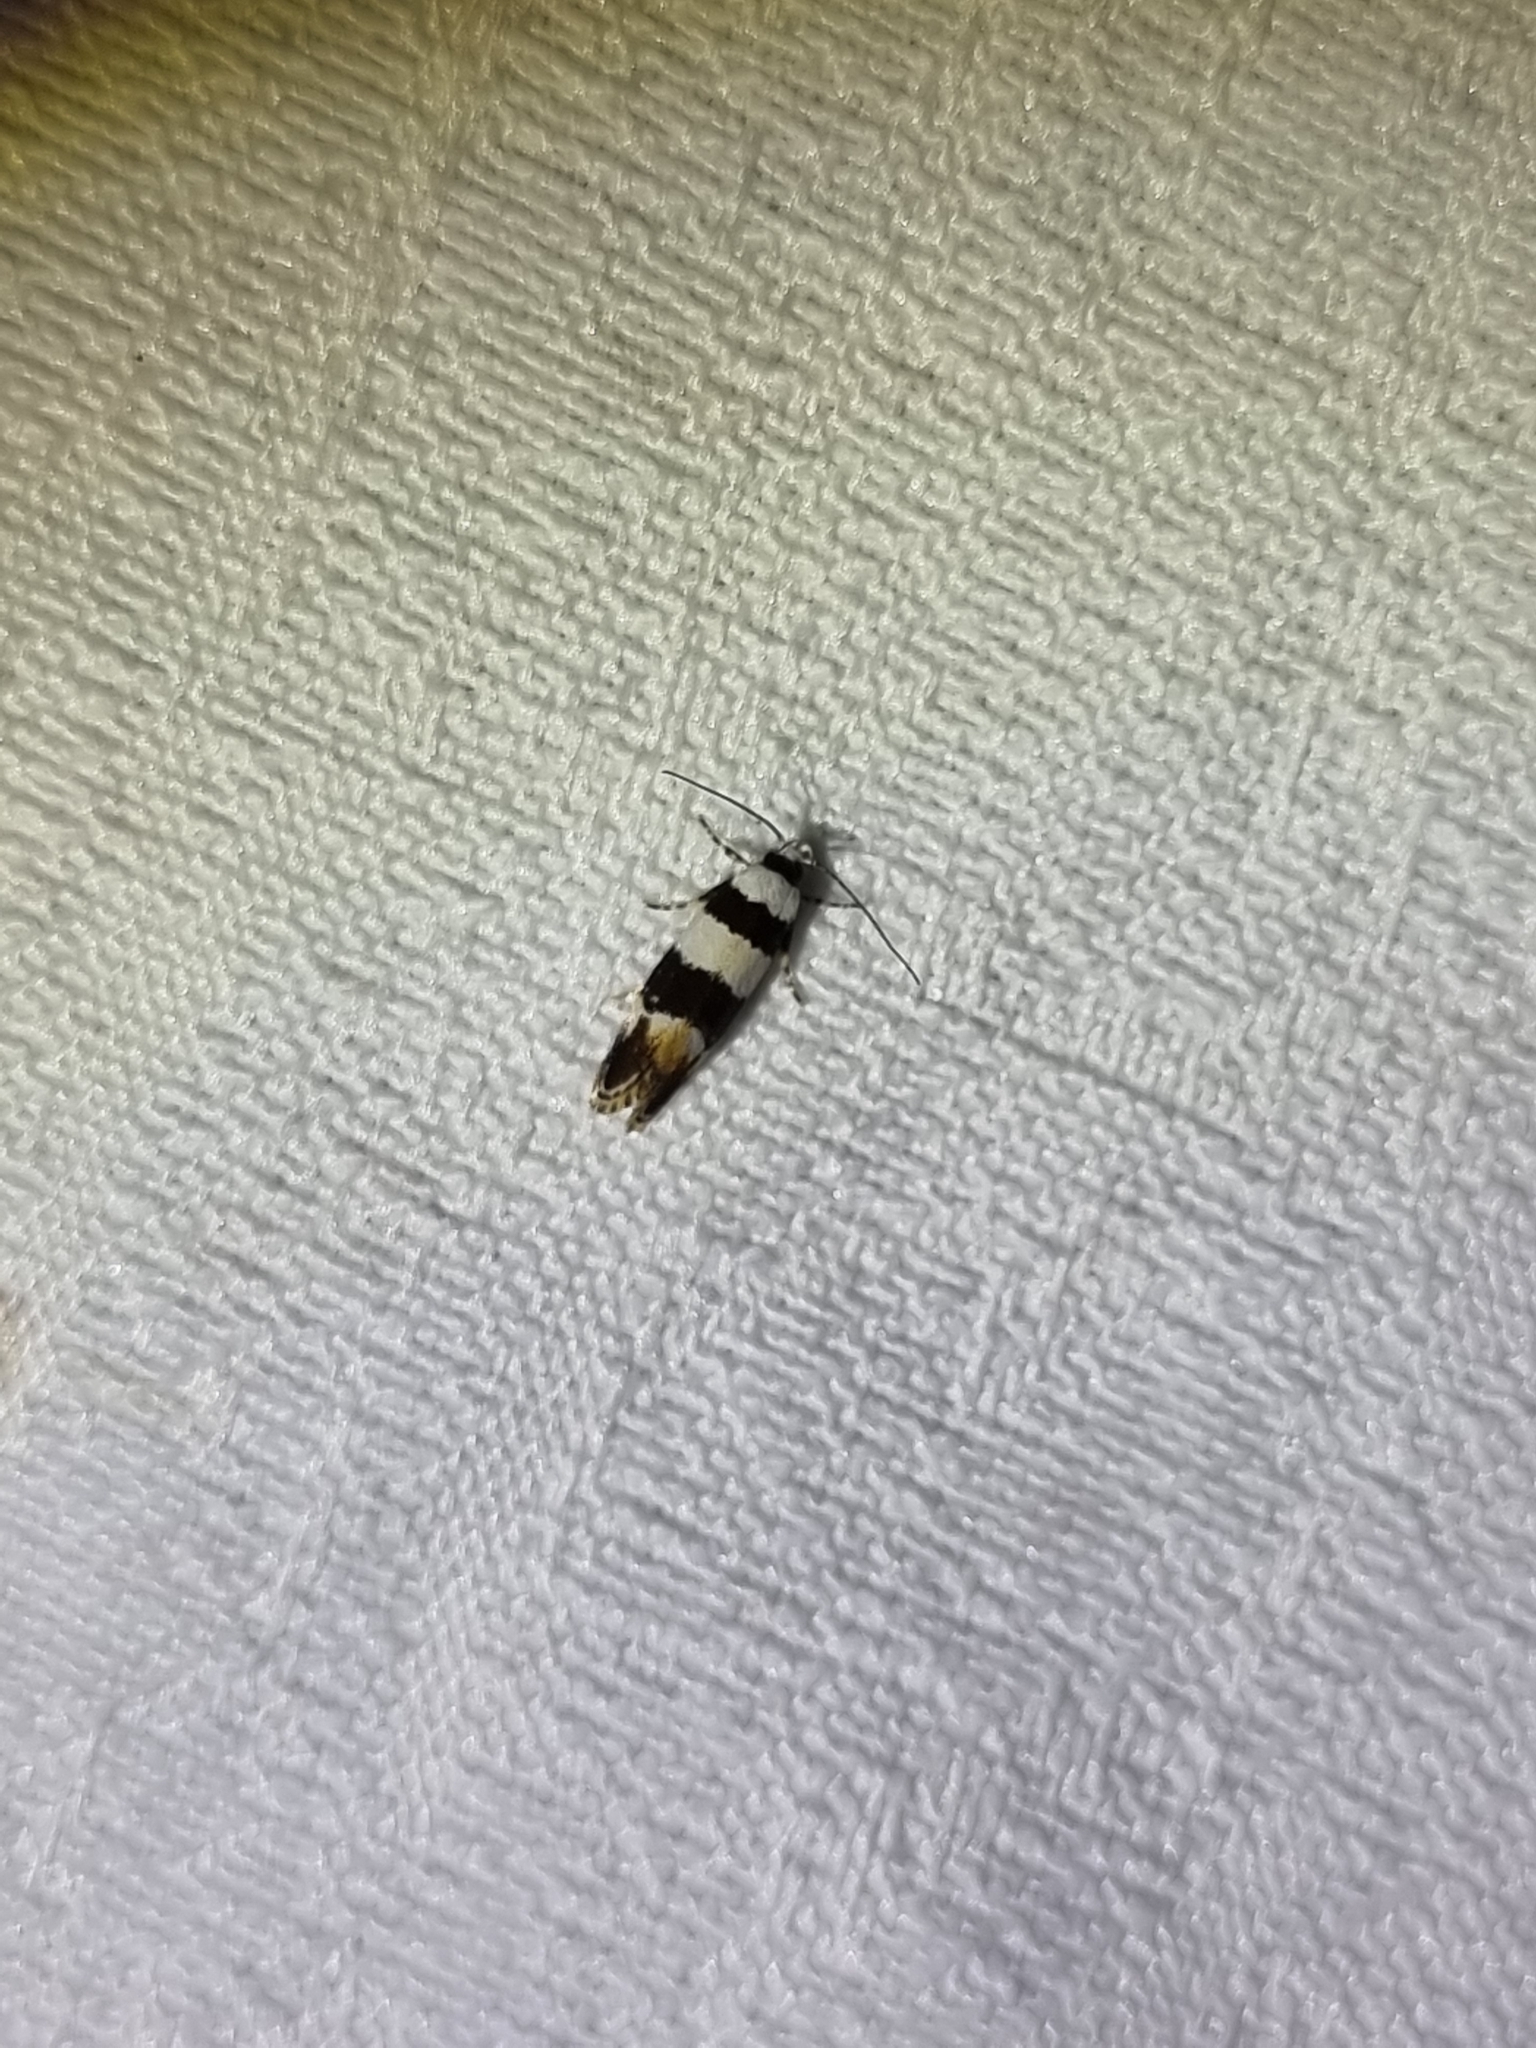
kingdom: Animalia
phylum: Arthropoda
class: Insecta
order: Lepidoptera
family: Xyloryctidae
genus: Lichenaula
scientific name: Lichenaula arisema
